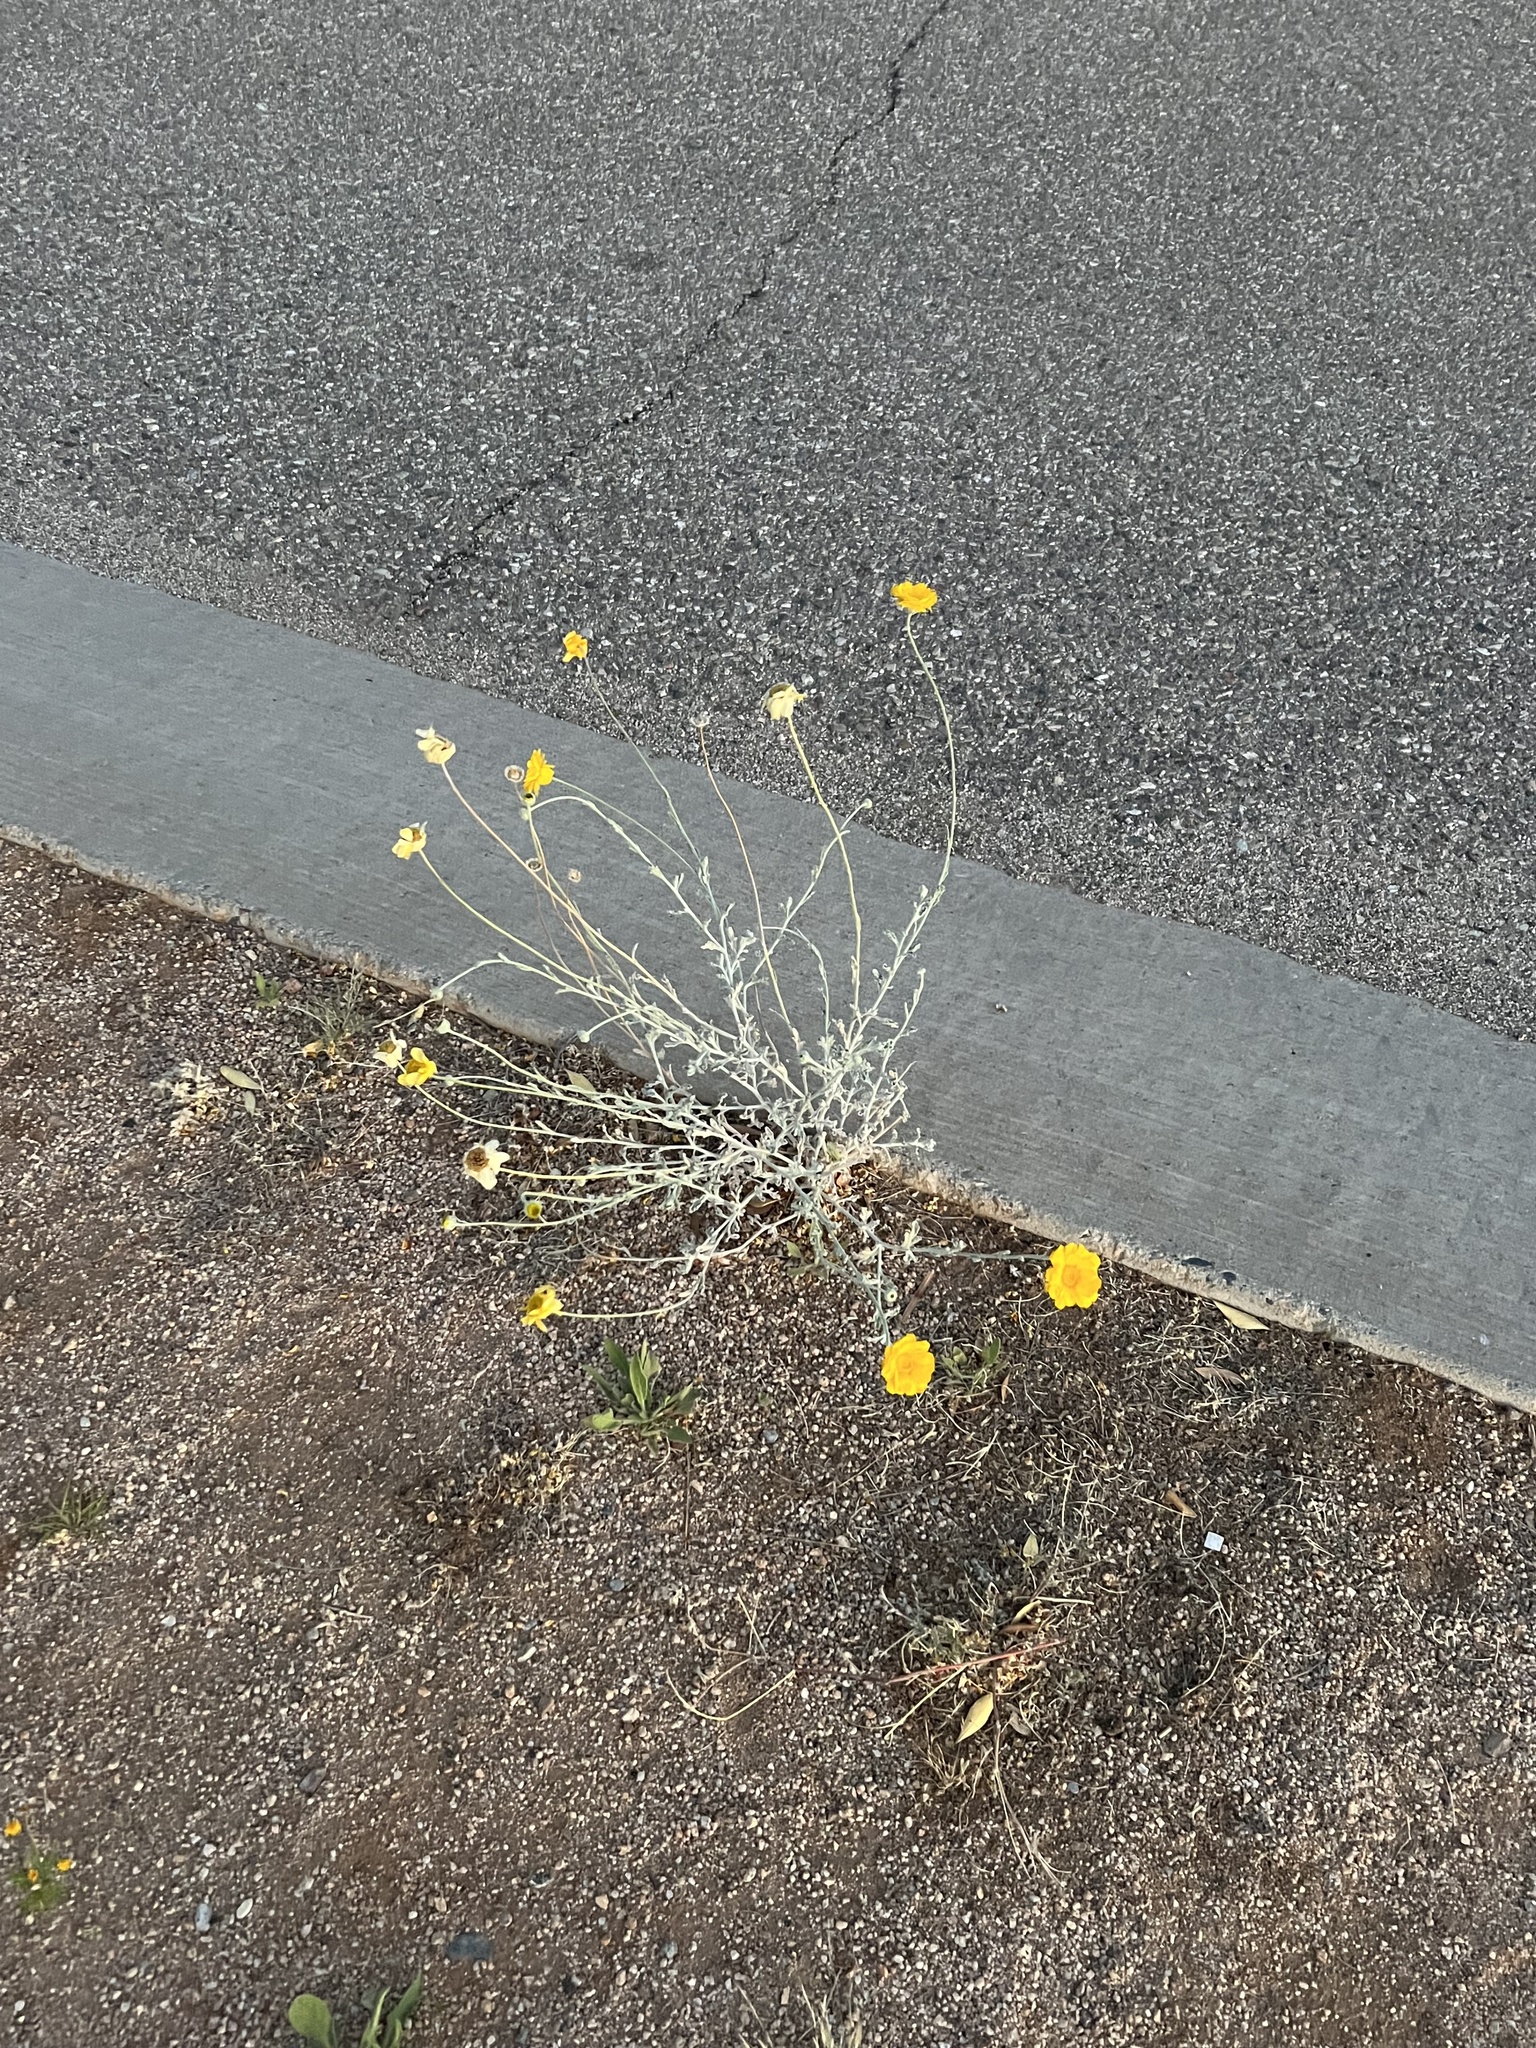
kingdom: Plantae
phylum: Tracheophyta
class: Magnoliopsida
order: Asterales
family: Asteraceae
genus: Baileya
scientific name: Baileya multiradiata
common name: Desert-marigold
